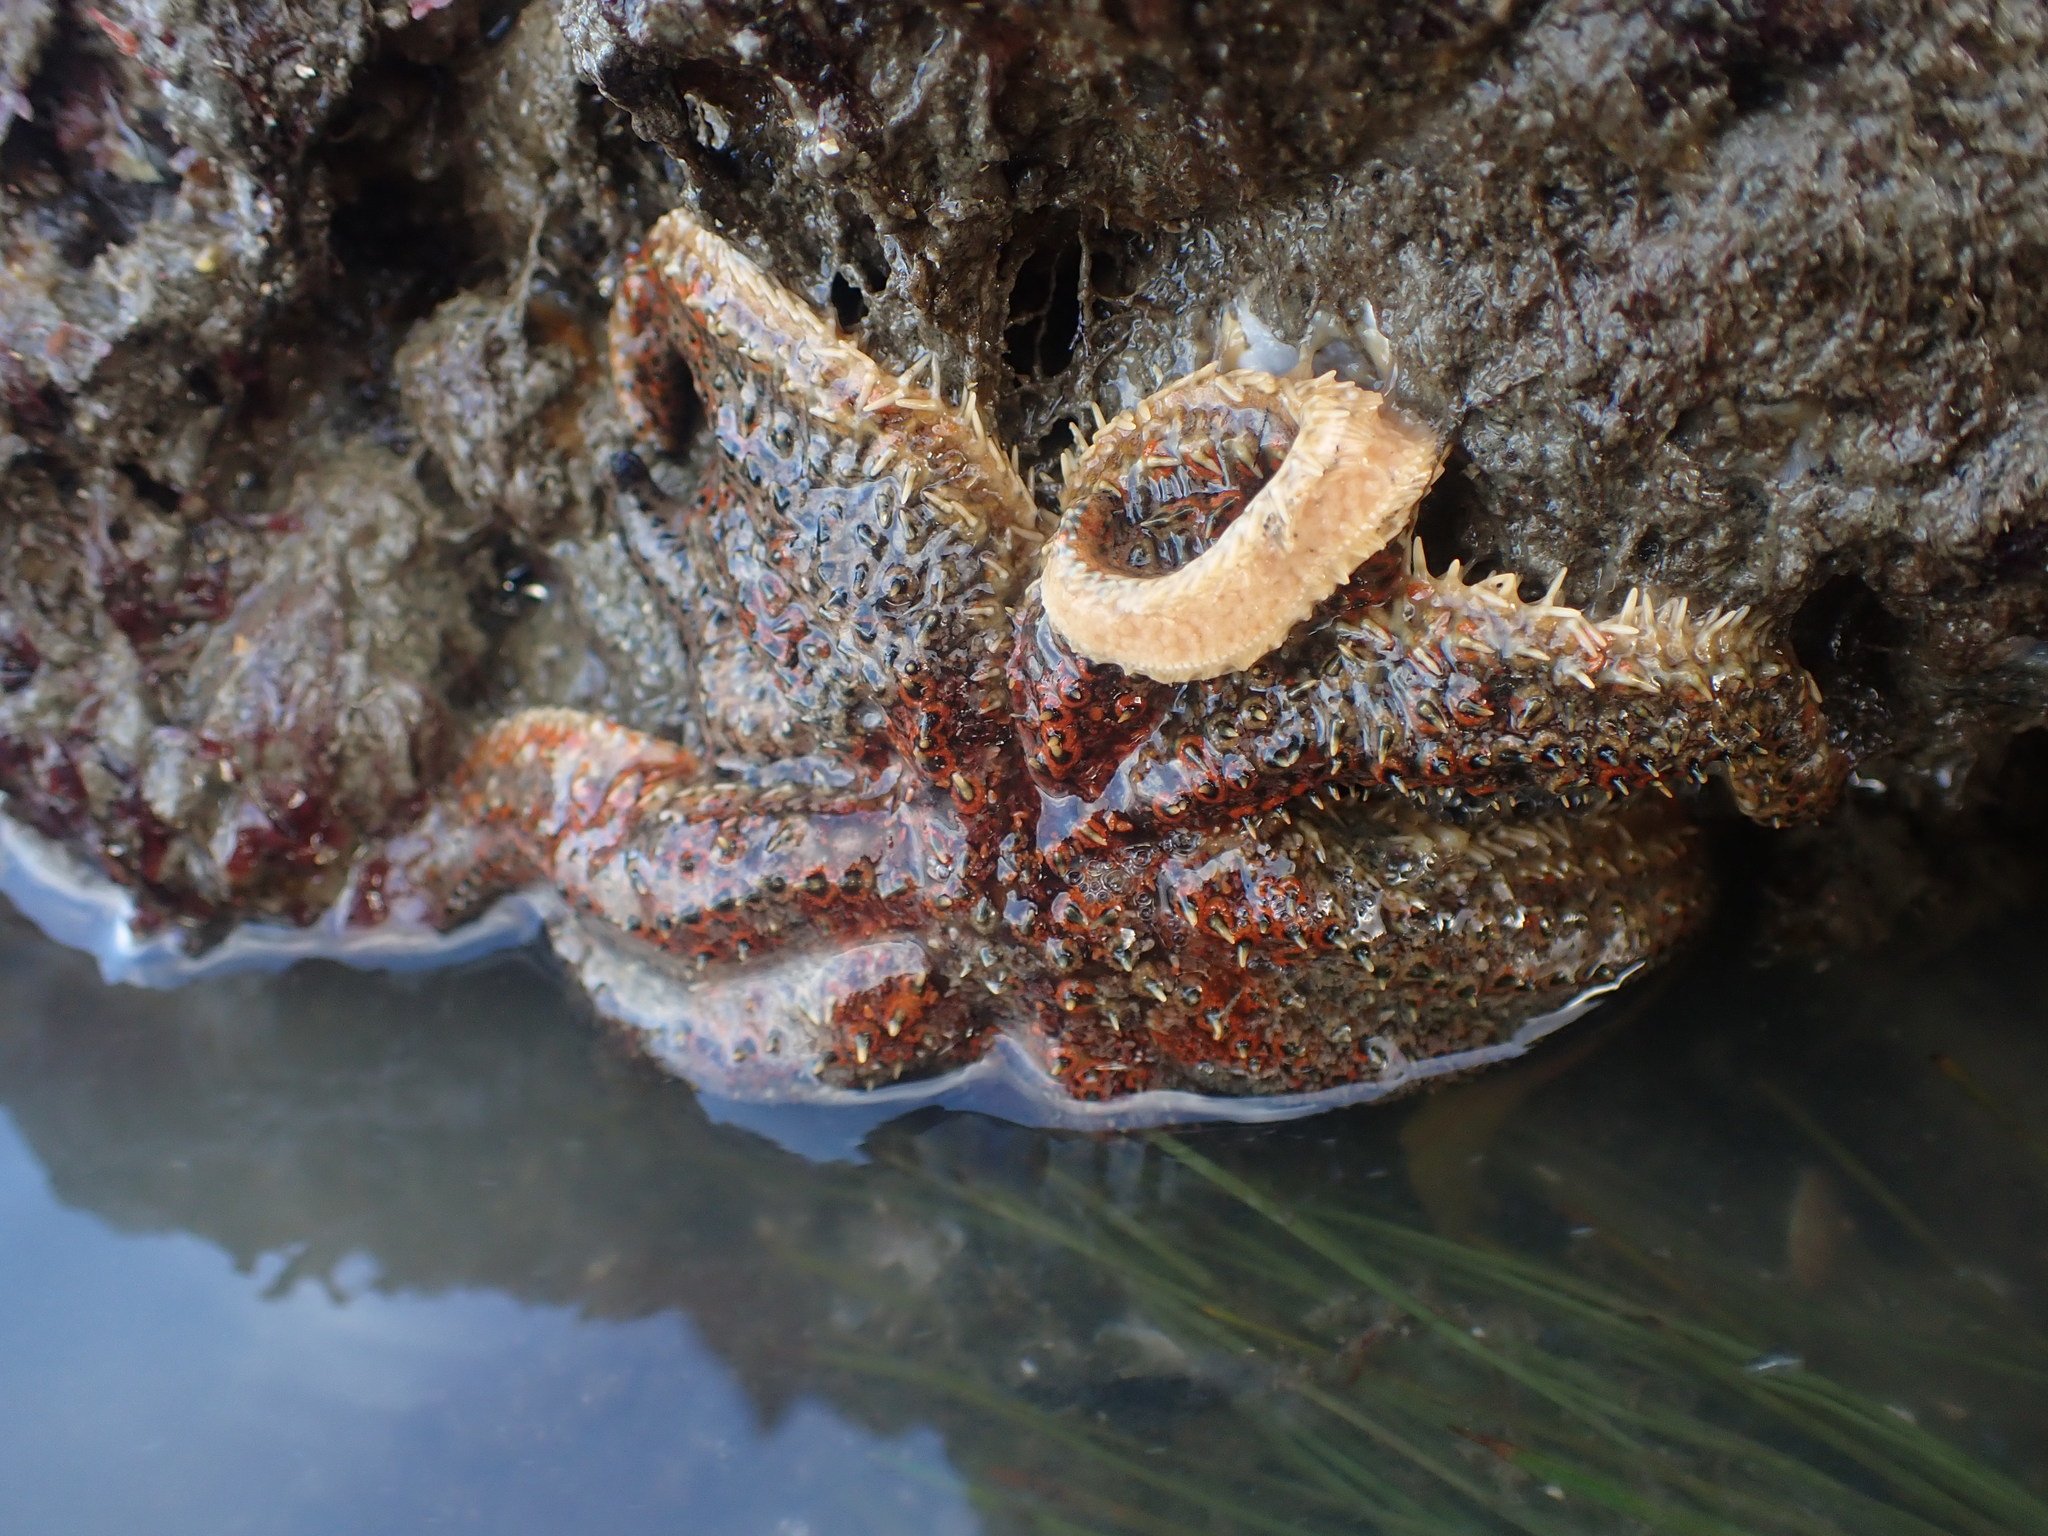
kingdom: Animalia
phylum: Echinodermata
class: Asteroidea
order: Forcipulatida
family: Asteriidae
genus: Coscinasterias
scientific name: Coscinasterias muricata
